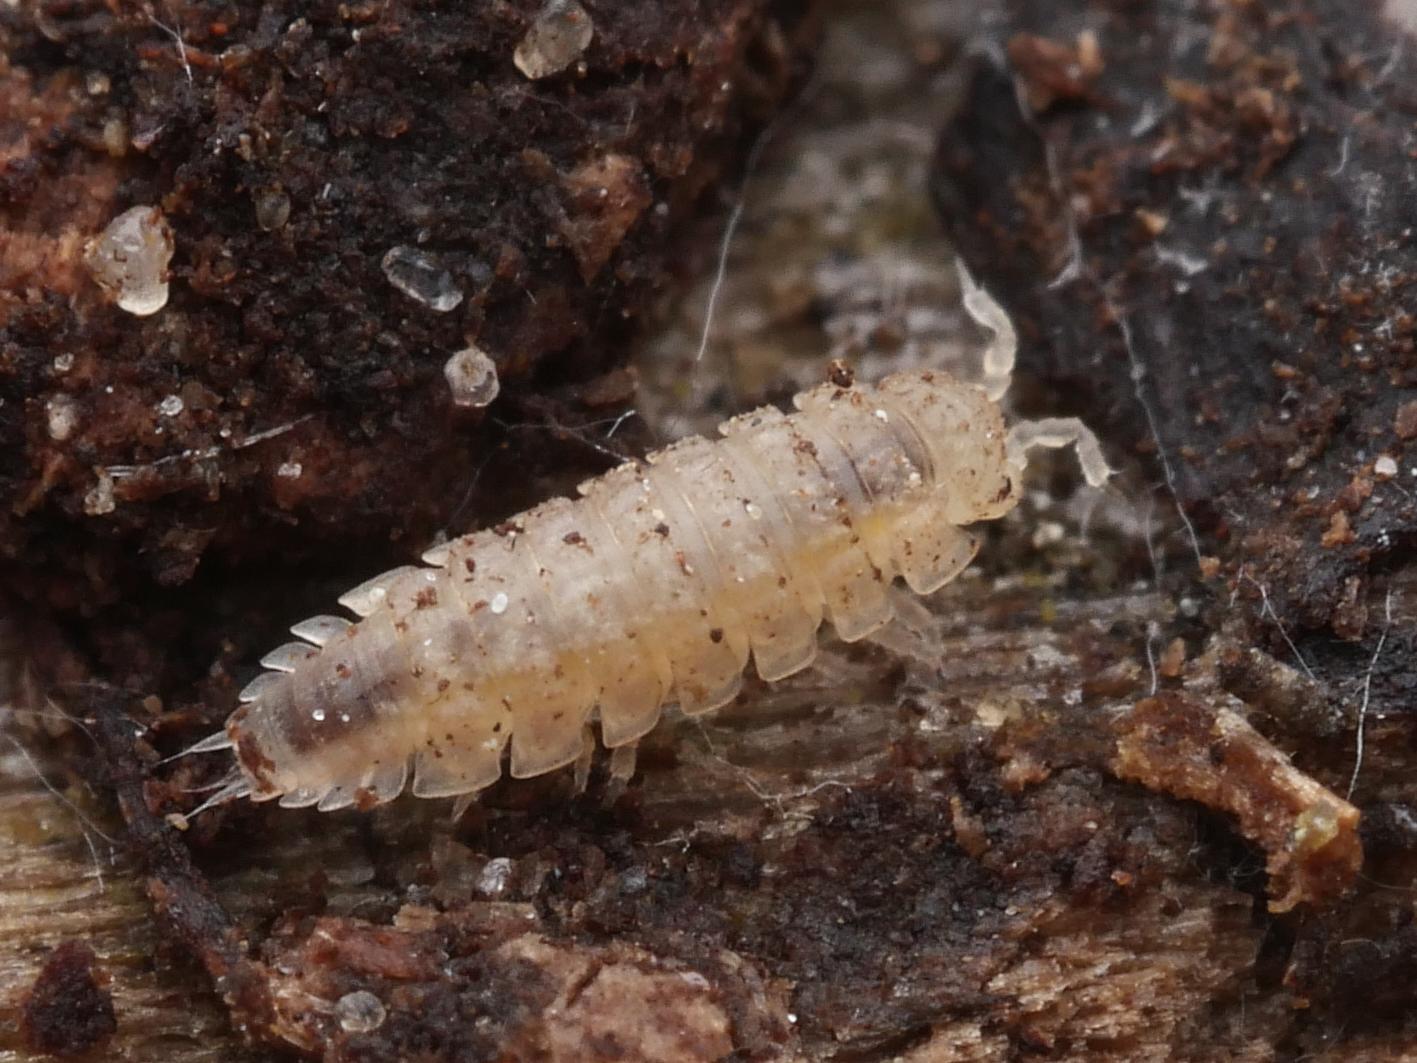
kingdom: Animalia
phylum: Arthropoda
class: Malacostraca
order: Isopoda
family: Trichoniscidae
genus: Haplophthalmus
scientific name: Haplophthalmus danicus
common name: Pillbug
